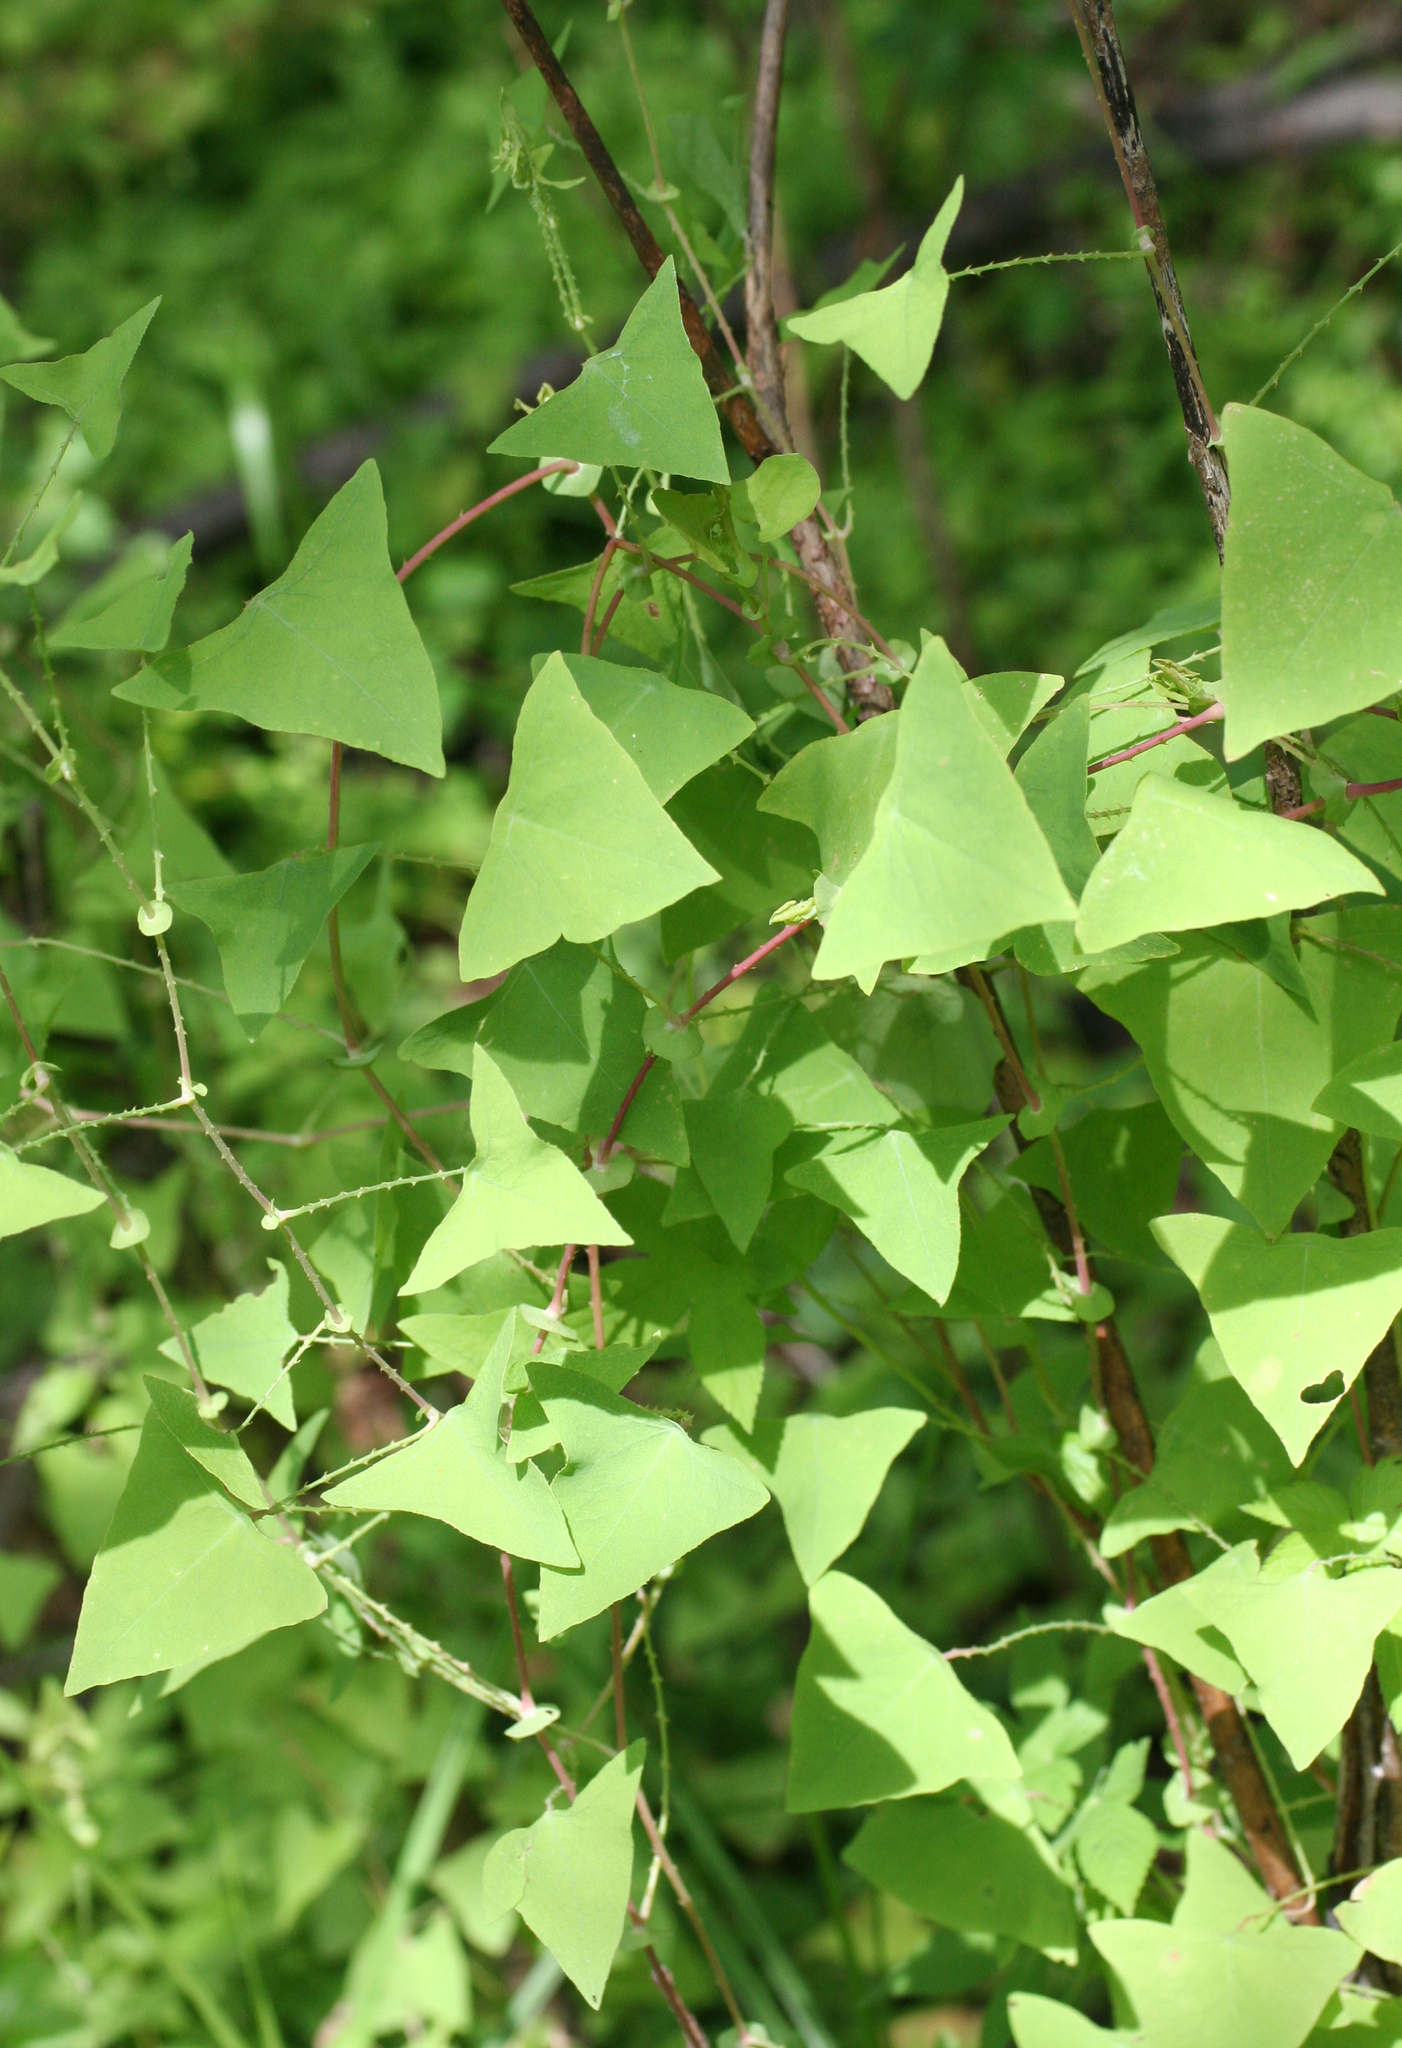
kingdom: Plantae
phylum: Tracheophyta
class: Magnoliopsida
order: Caryophyllales
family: Polygonaceae
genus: Persicaria
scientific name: Persicaria perfoliata
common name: Asiatic tearthumb
